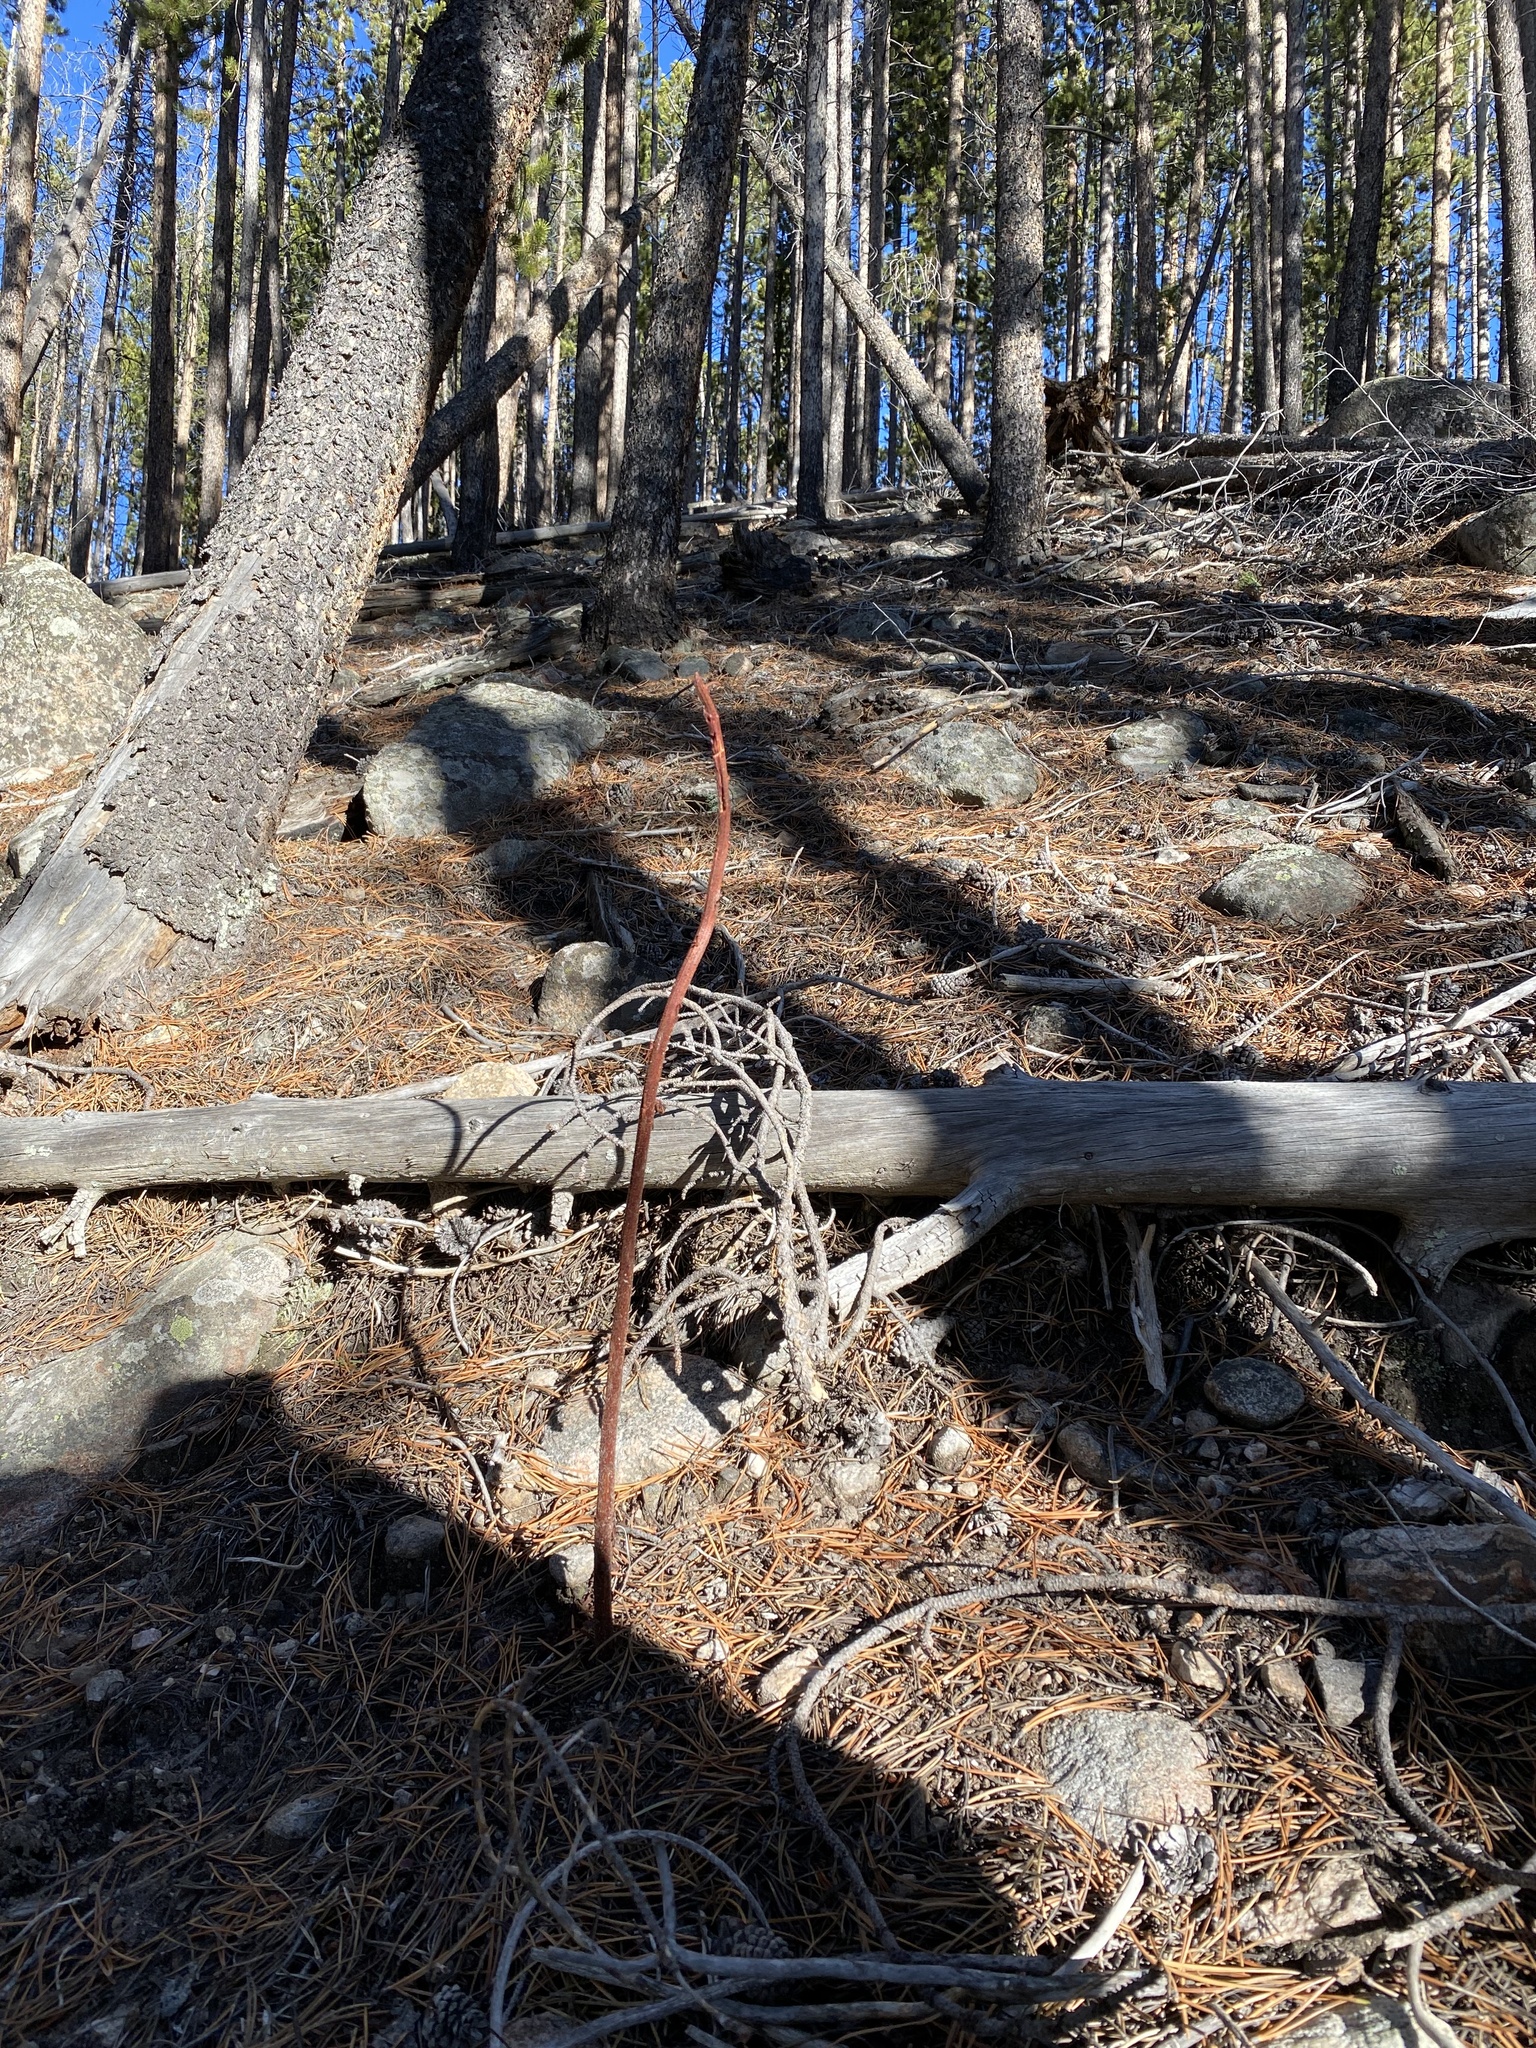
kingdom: Plantae
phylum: Tracheophyta
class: Magnoliopsida
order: Ericales
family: Ericaceae
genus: Pterospora
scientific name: Pterospora andromedea
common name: Giant bird's-nest
